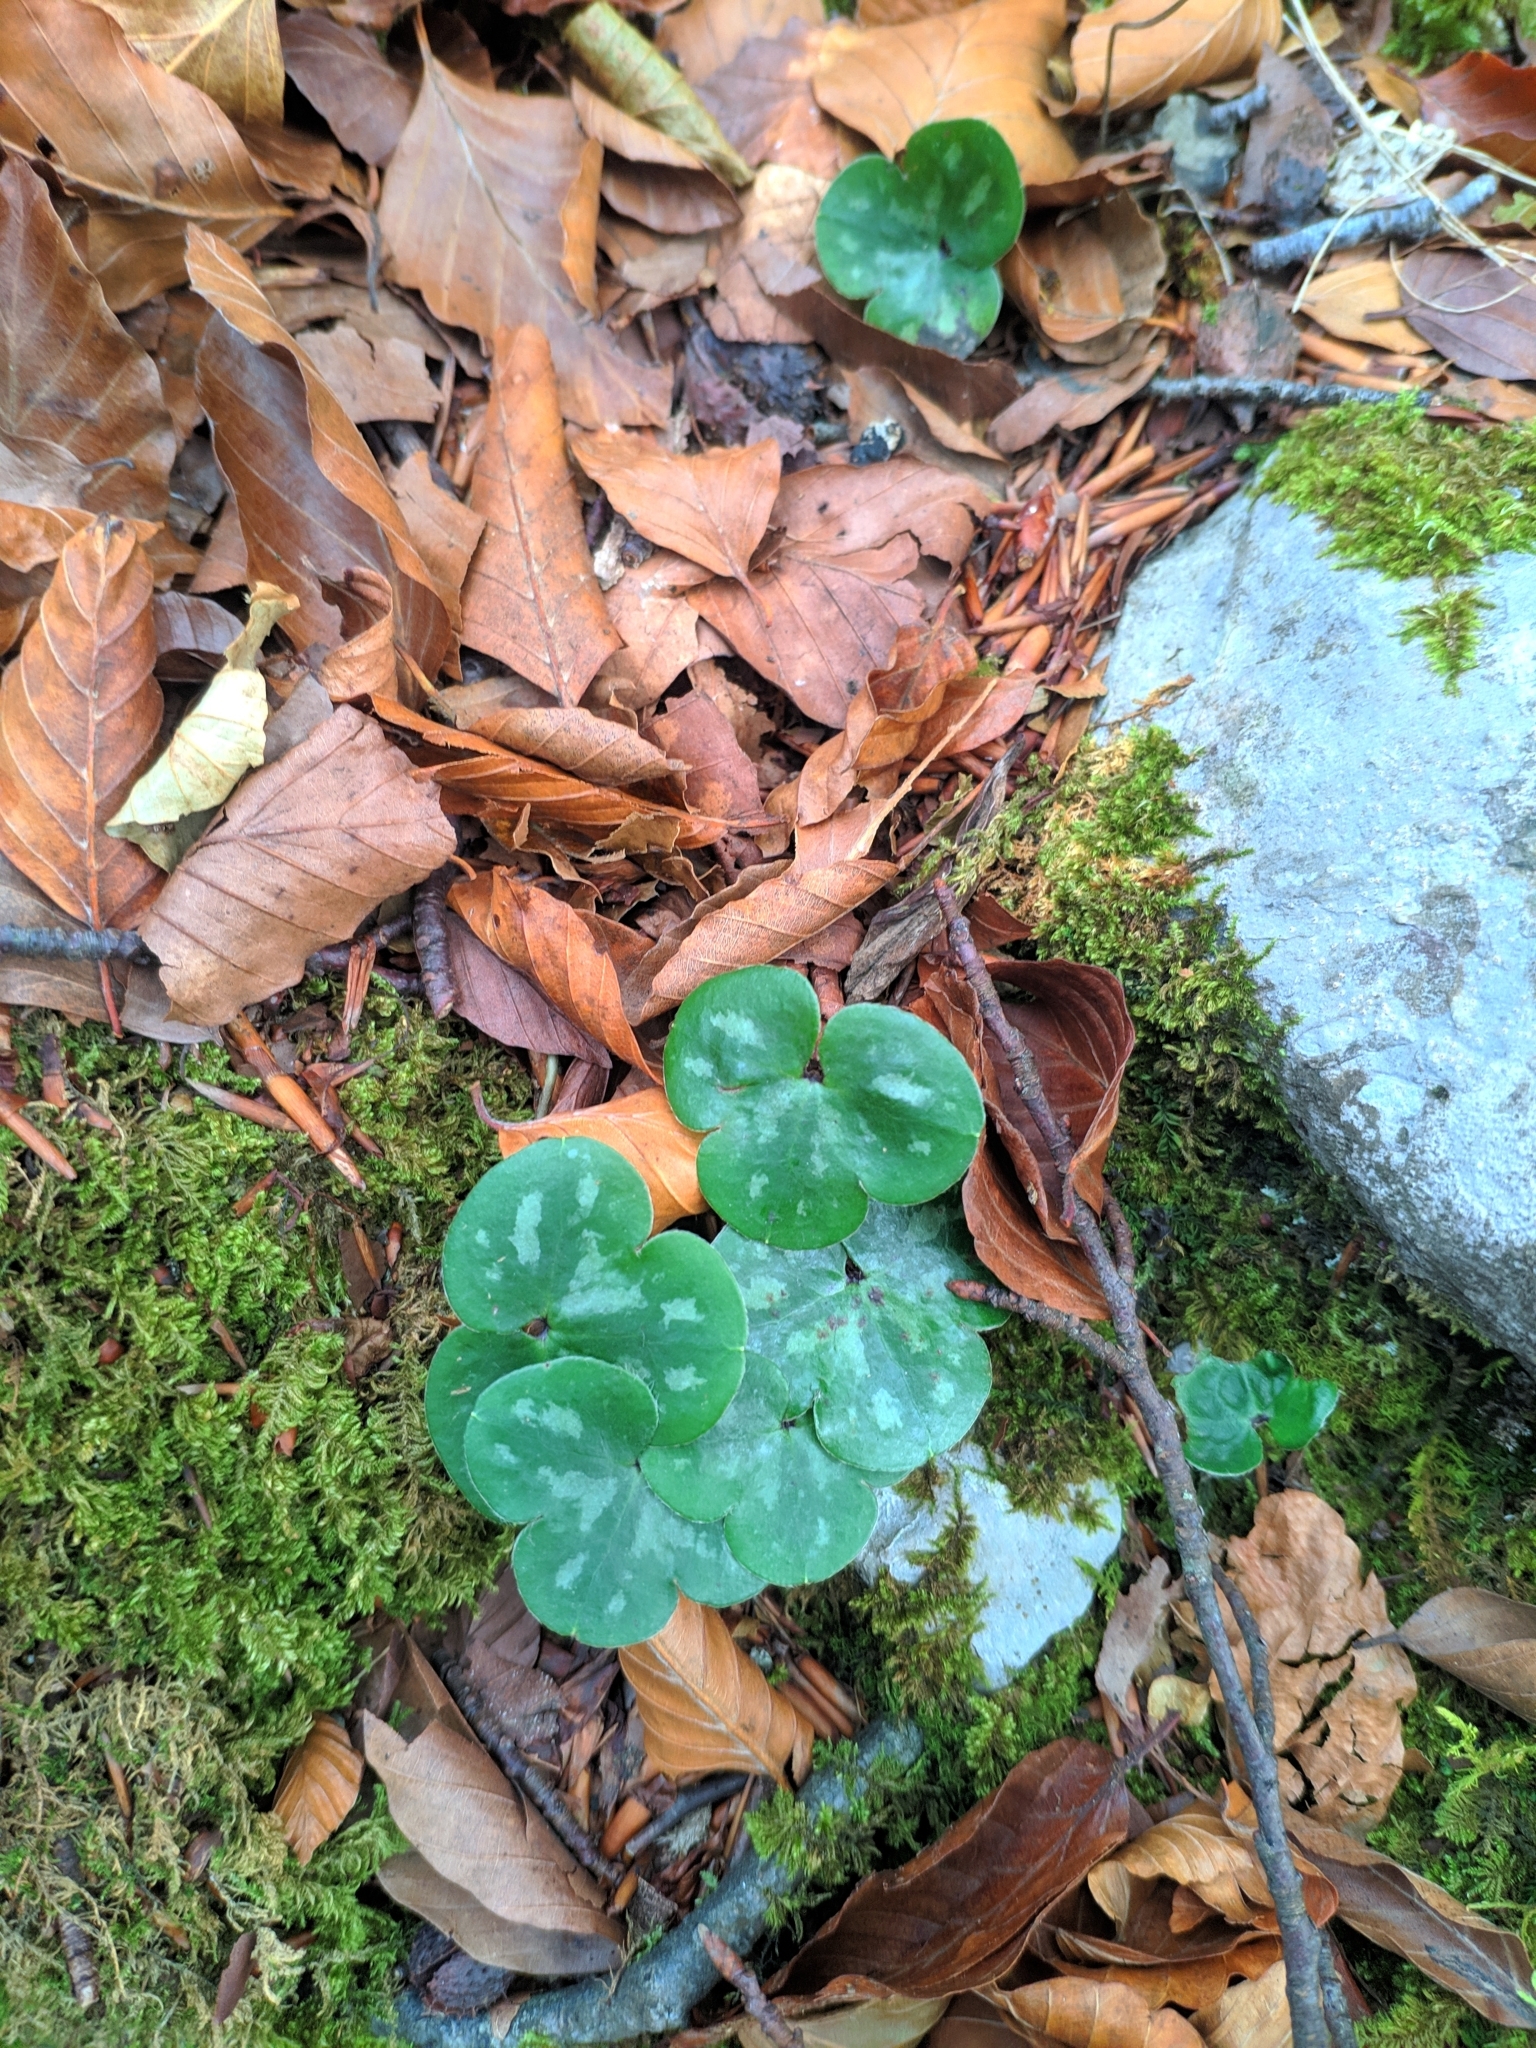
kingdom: Plantae
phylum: Tracheophyta
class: Magnoliopsida
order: Ranunculales
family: Ranunculaceae
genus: Hepatica
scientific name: Hepatica nobilis
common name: Liverleaf
